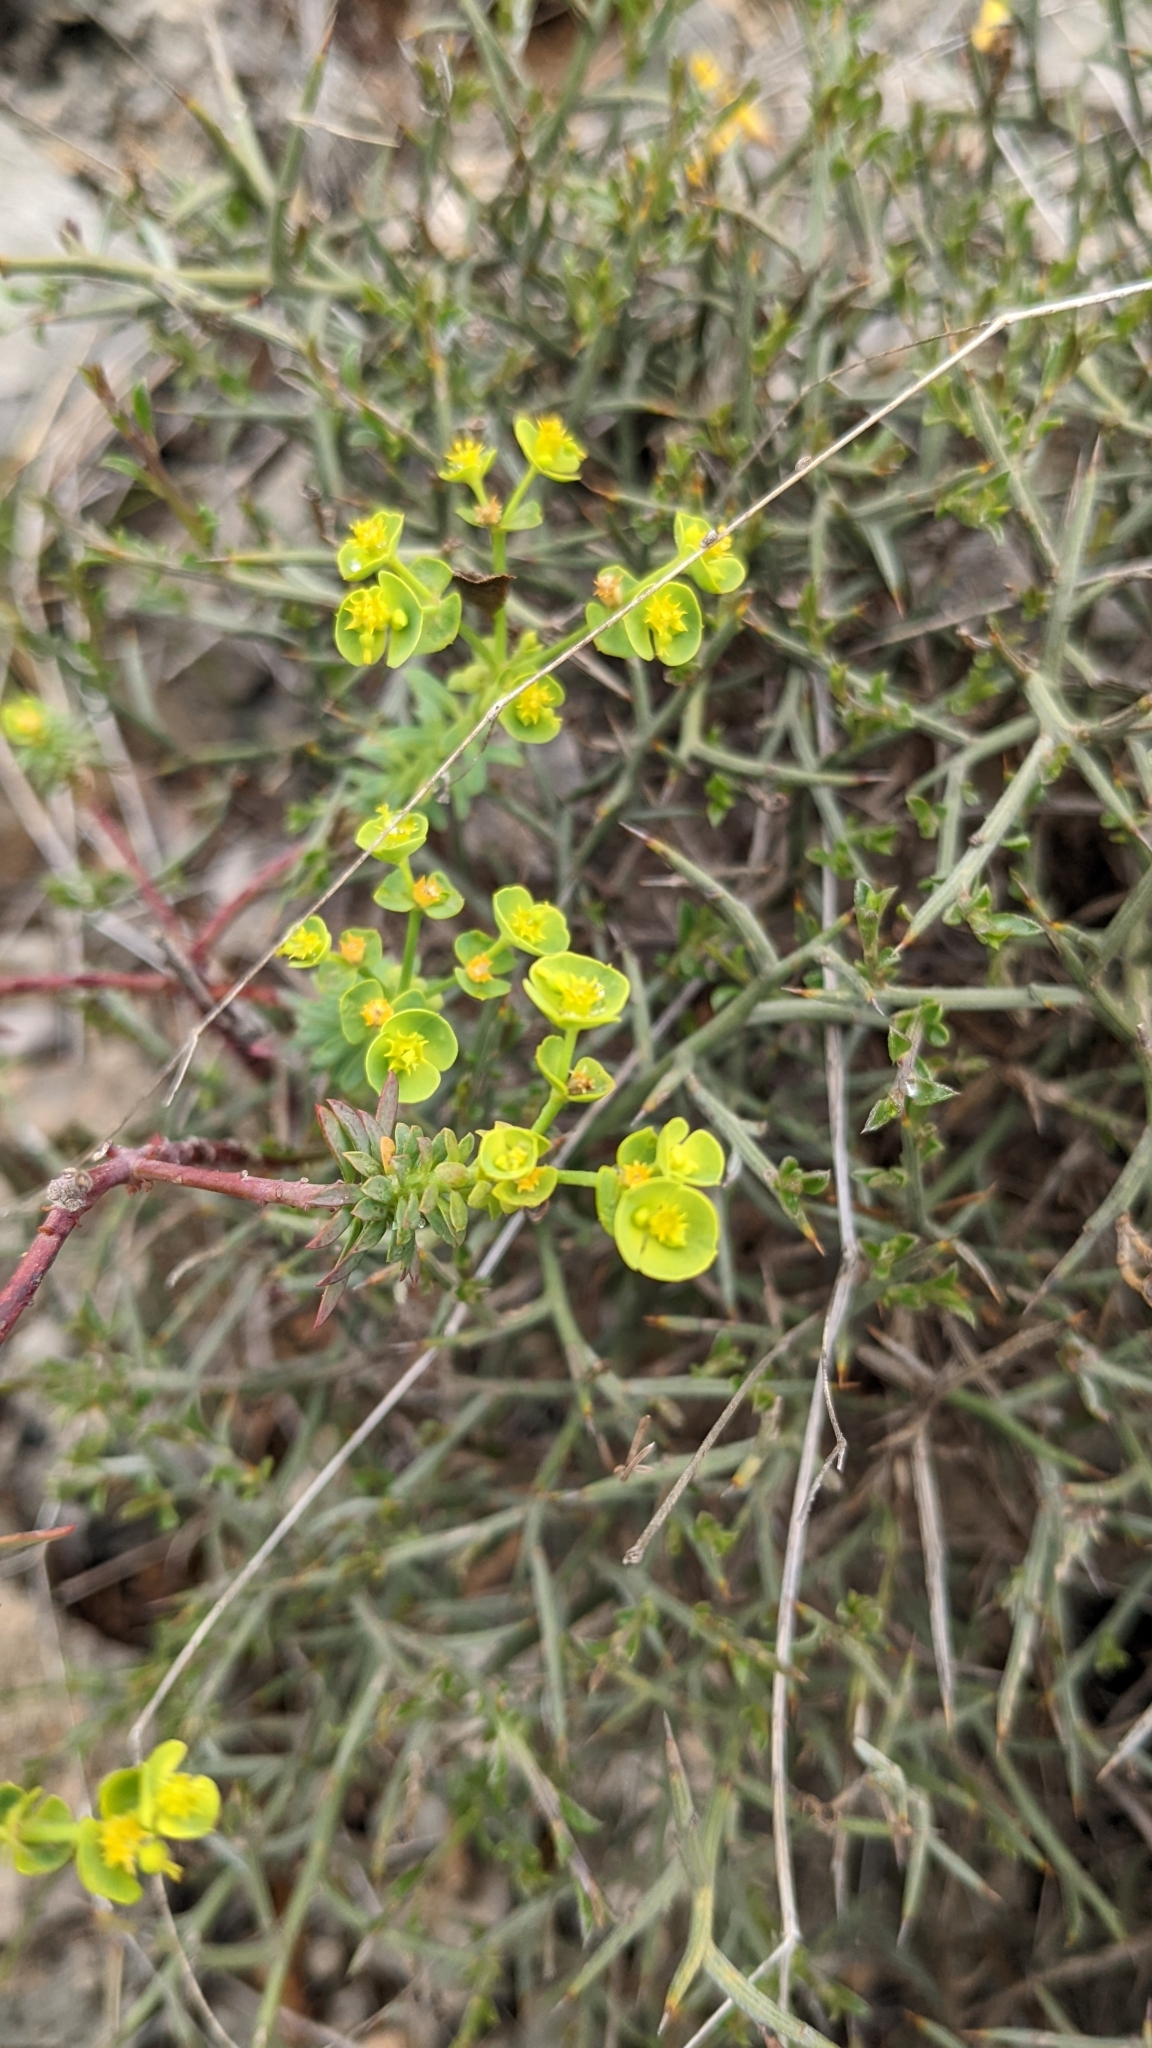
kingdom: Plantae
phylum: Tracheophyta
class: Magnoliopsida
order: Malpighiales
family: Euphorbiaceae
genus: Euphorbia
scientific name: Euphorbia segetalis
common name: Corn spurge
